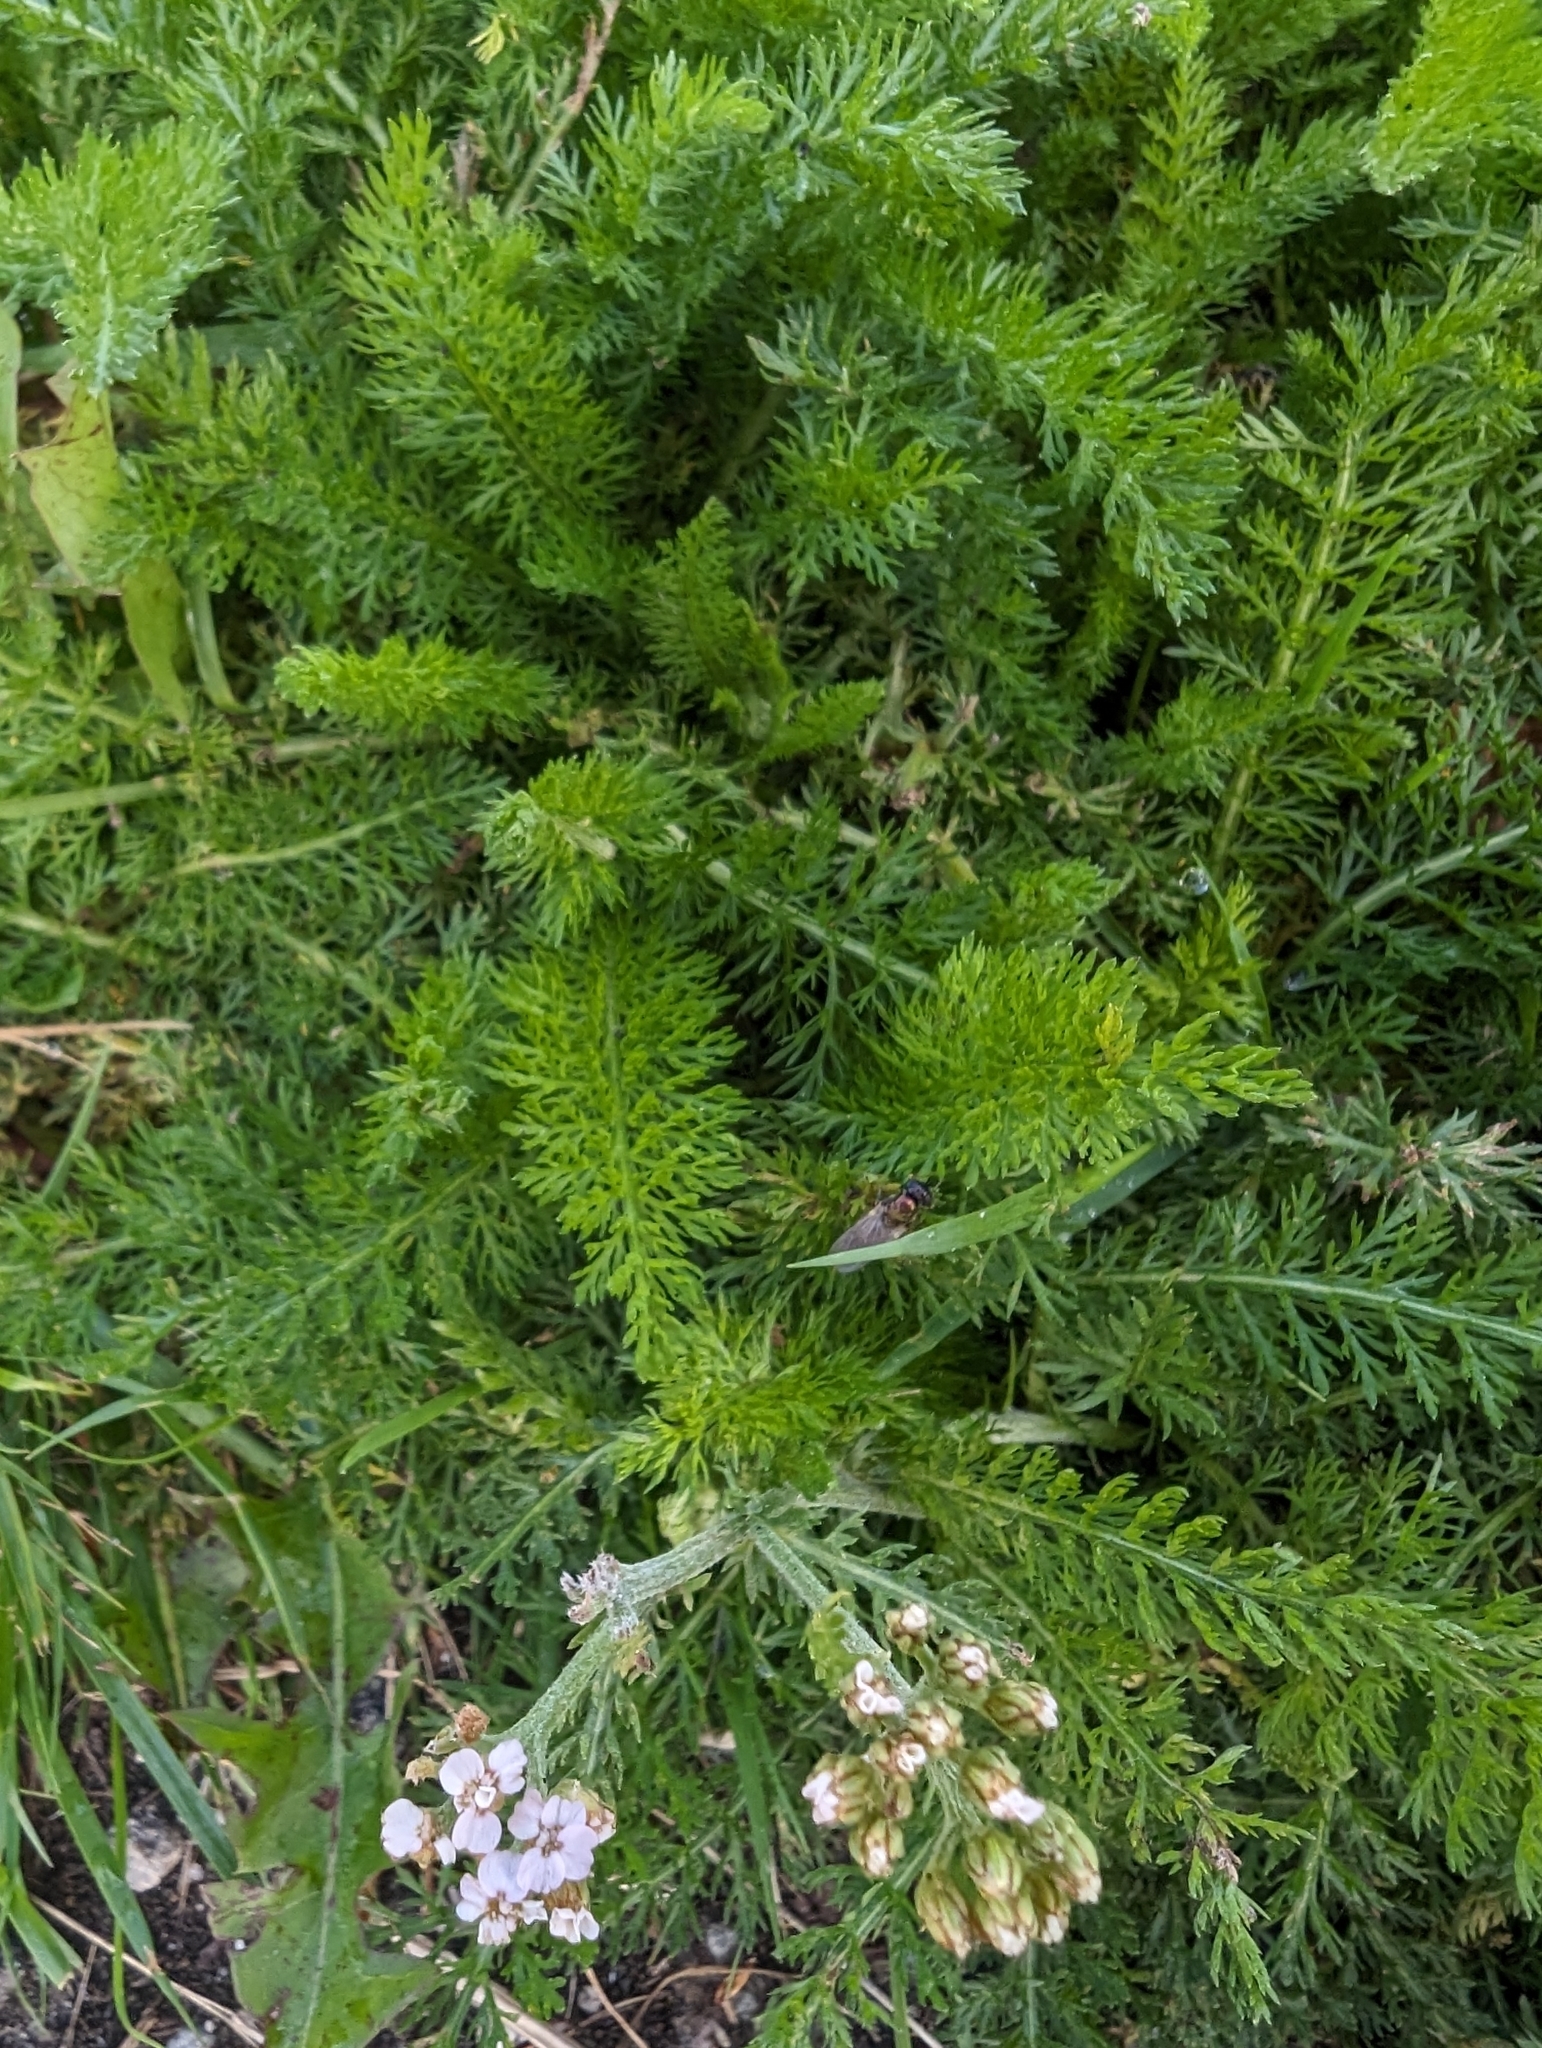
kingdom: Plantae
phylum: Tracheophyta
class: Magnoliopsida
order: Asterales
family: Asteraceae
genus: Achillea
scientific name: Achillea millefolium
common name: Yarrow
